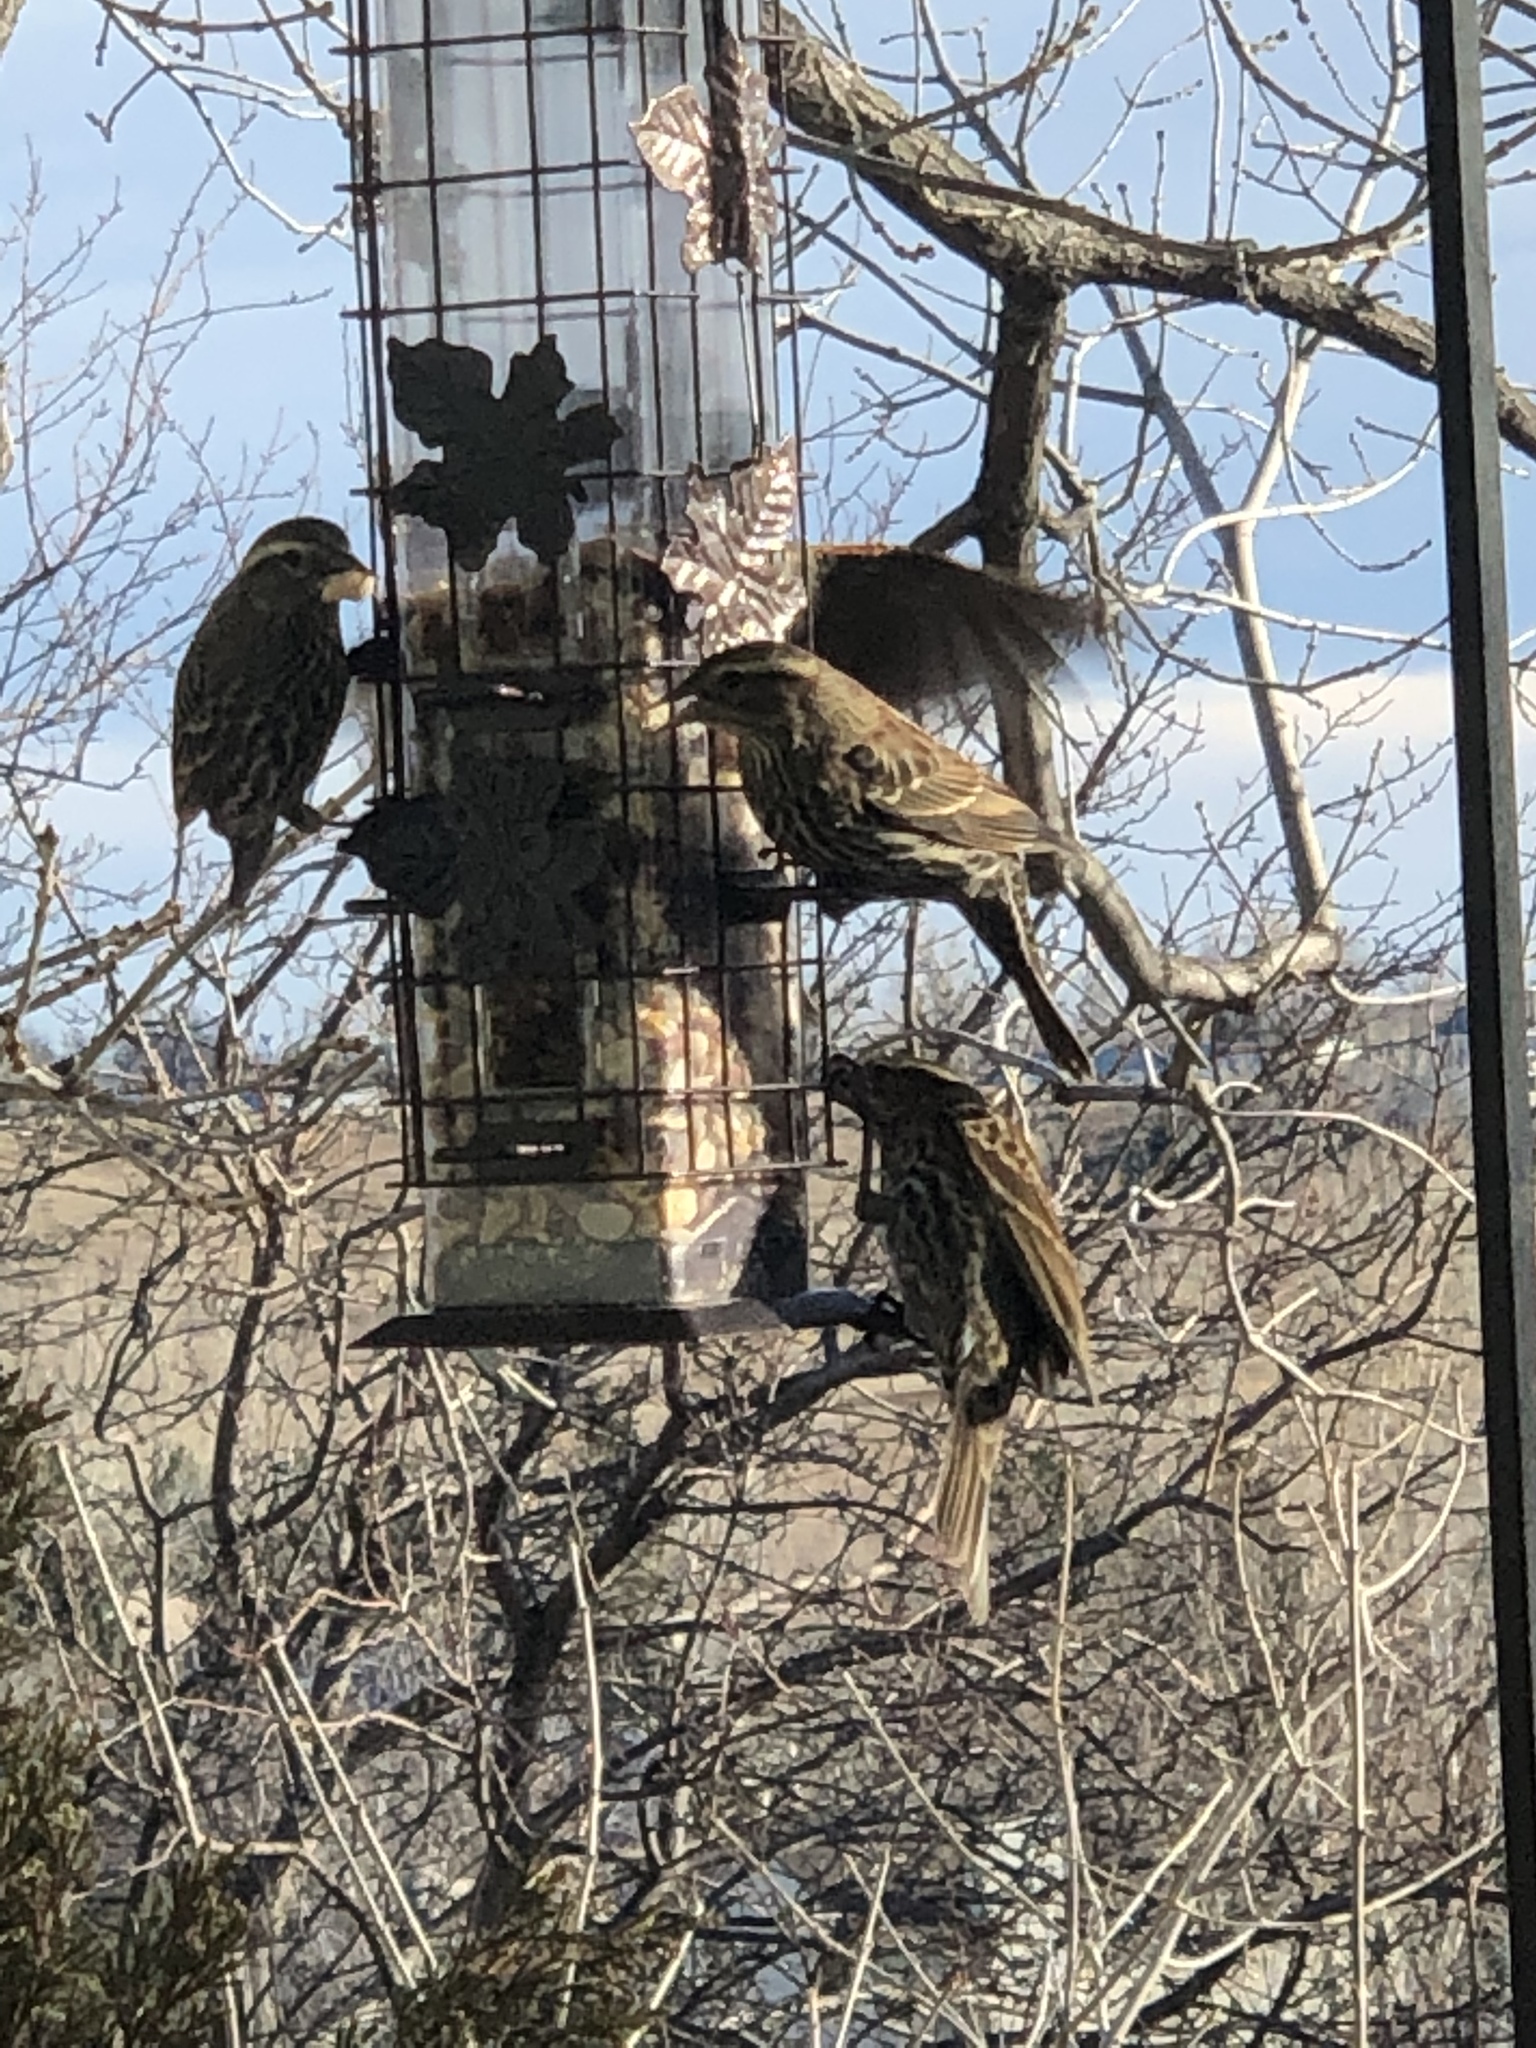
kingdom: Animalia
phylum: Chordata
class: Aves
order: Passeriformes
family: Icteridae
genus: Agelaius
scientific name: Agelaius phoeniceus
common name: Red-winged blackbird
